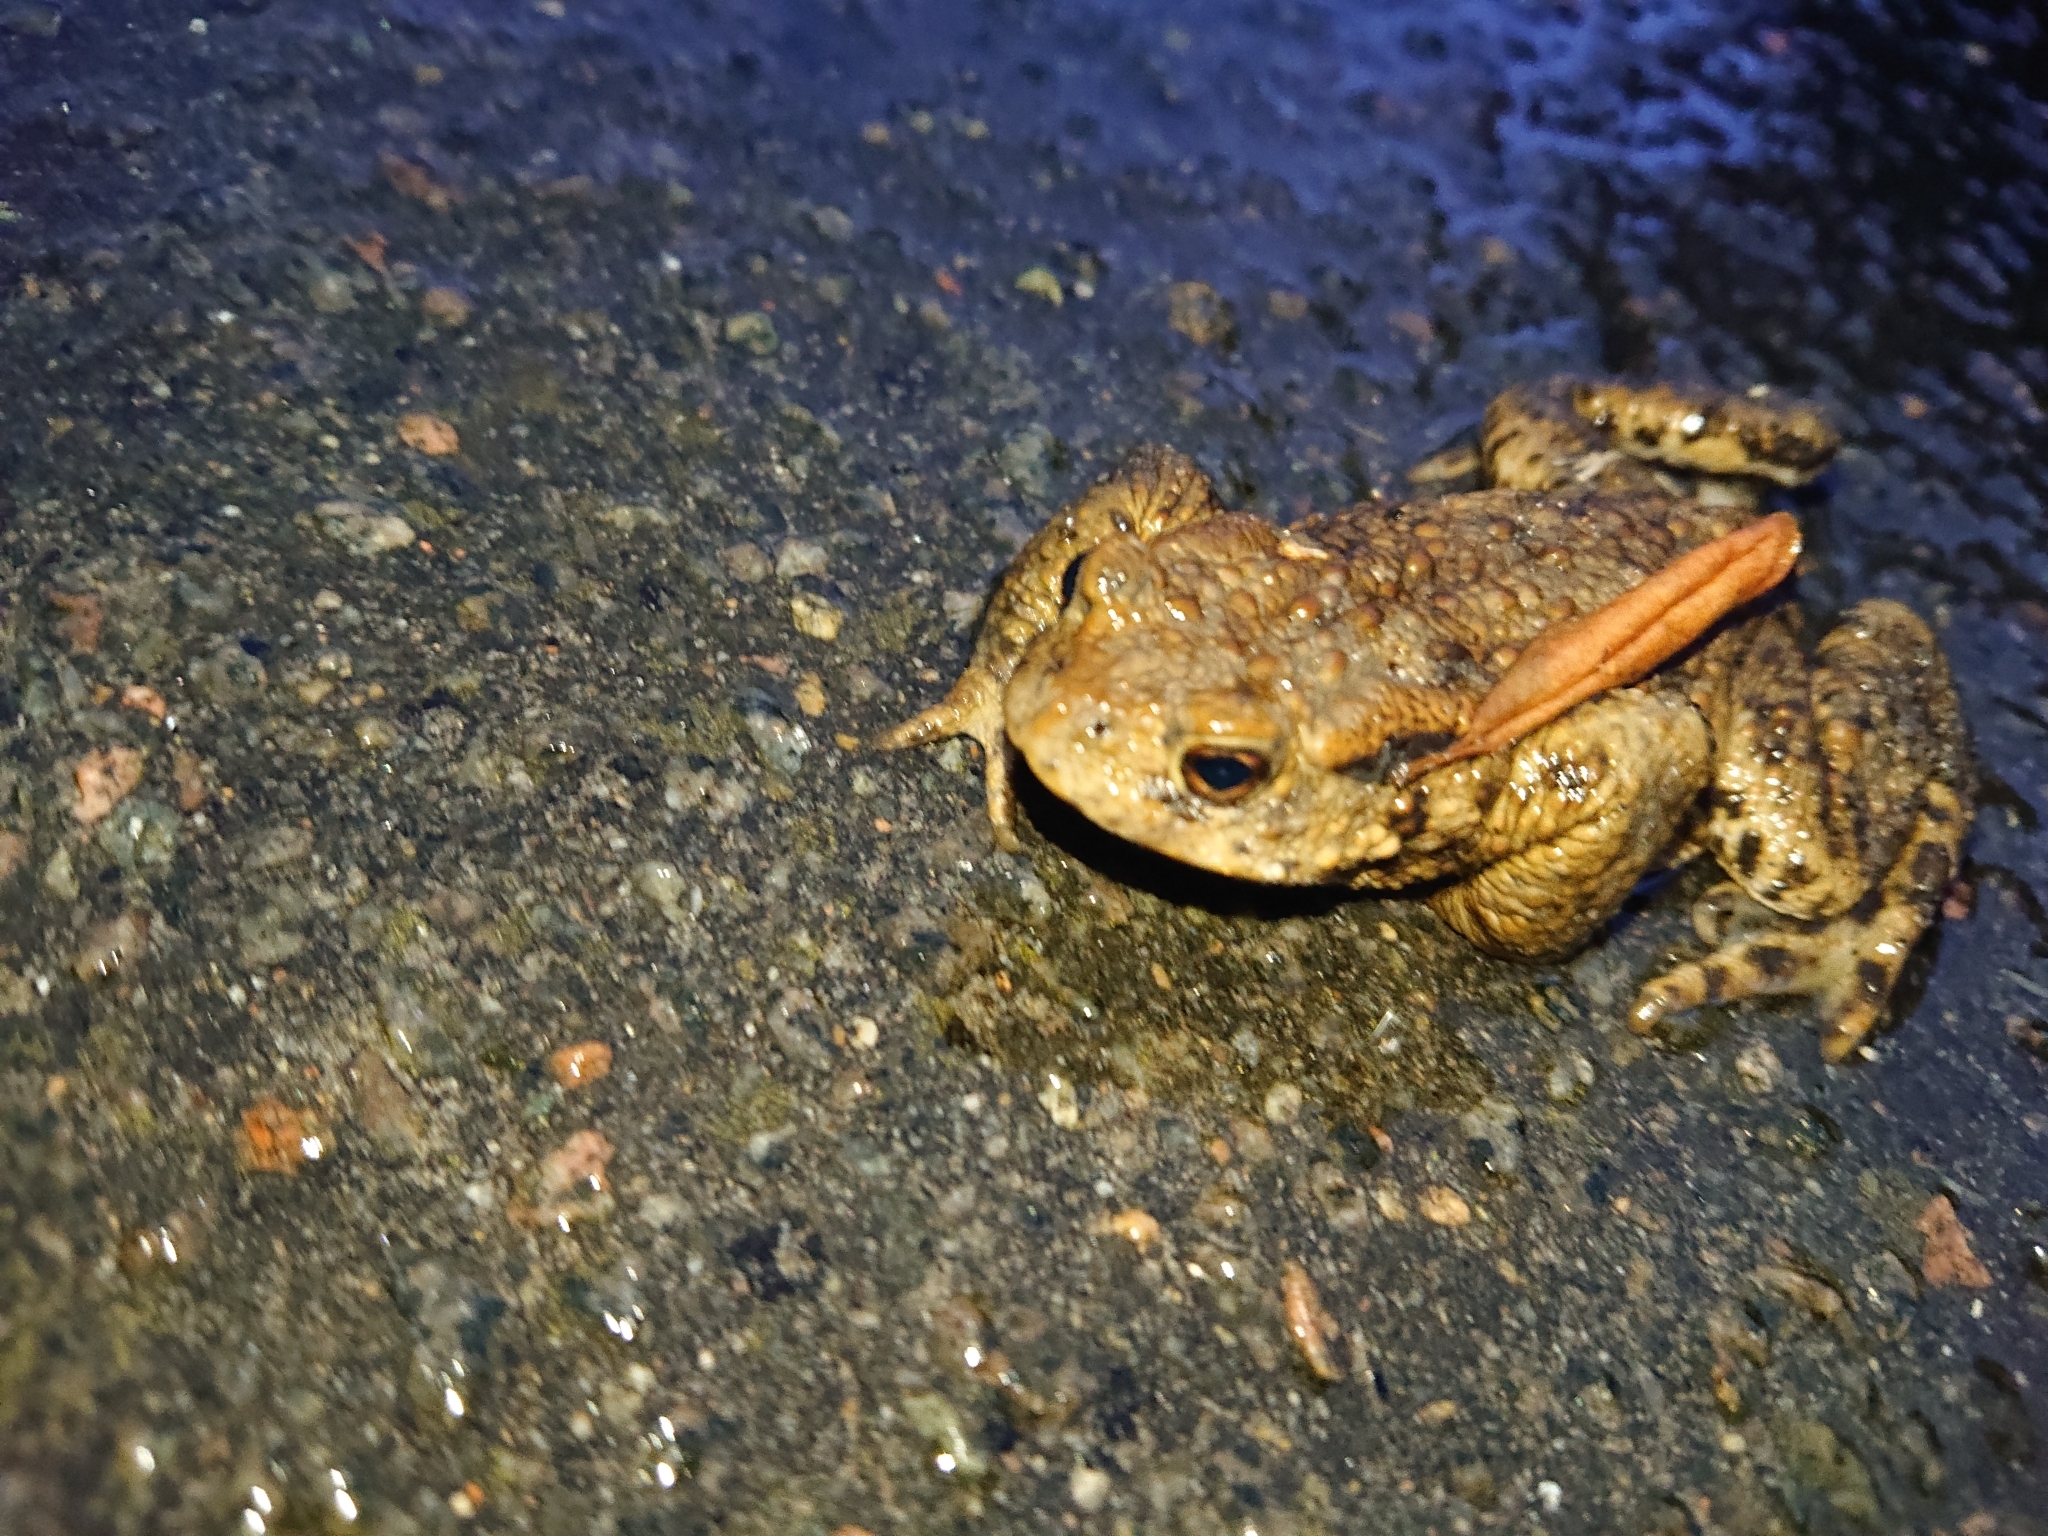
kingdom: Animalia
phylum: Chordata
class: Amphibia
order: Anura
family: Bufonidae
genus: Bufo
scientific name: Bufo bufo
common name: Common toad
